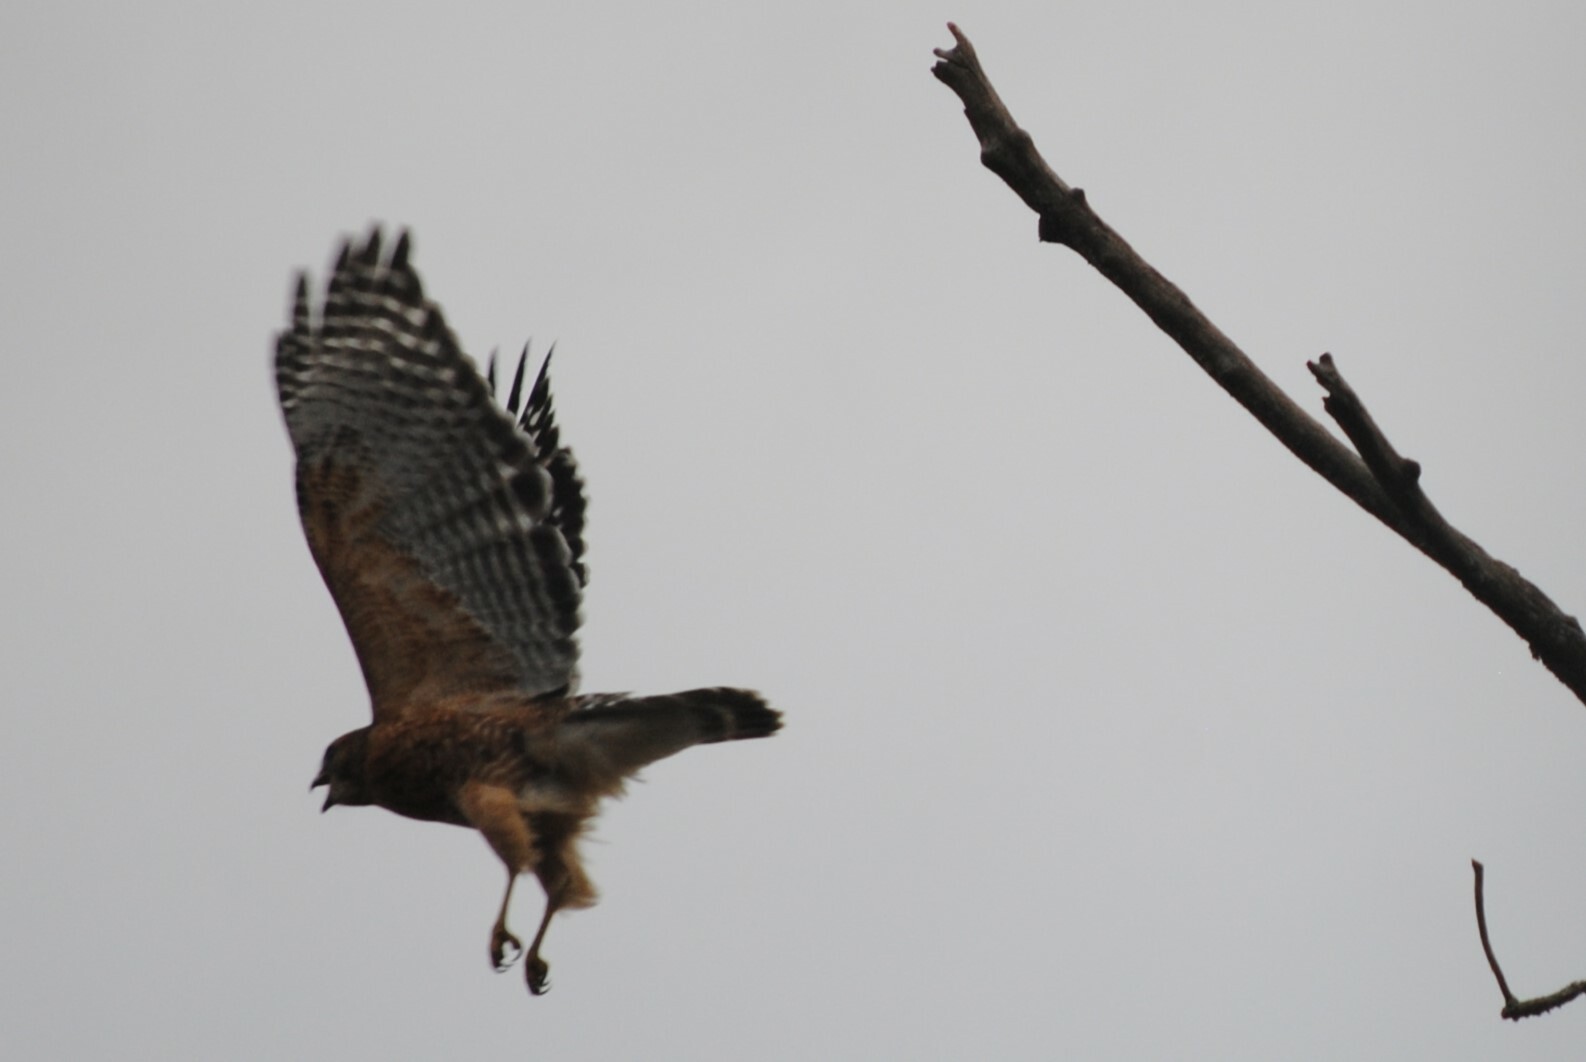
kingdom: Animalia
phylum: Chordata
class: Aves
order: Accipitriformes
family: Accipitridae
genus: Buteo
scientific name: Buteo lineatus
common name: Red-shouldered hawk
